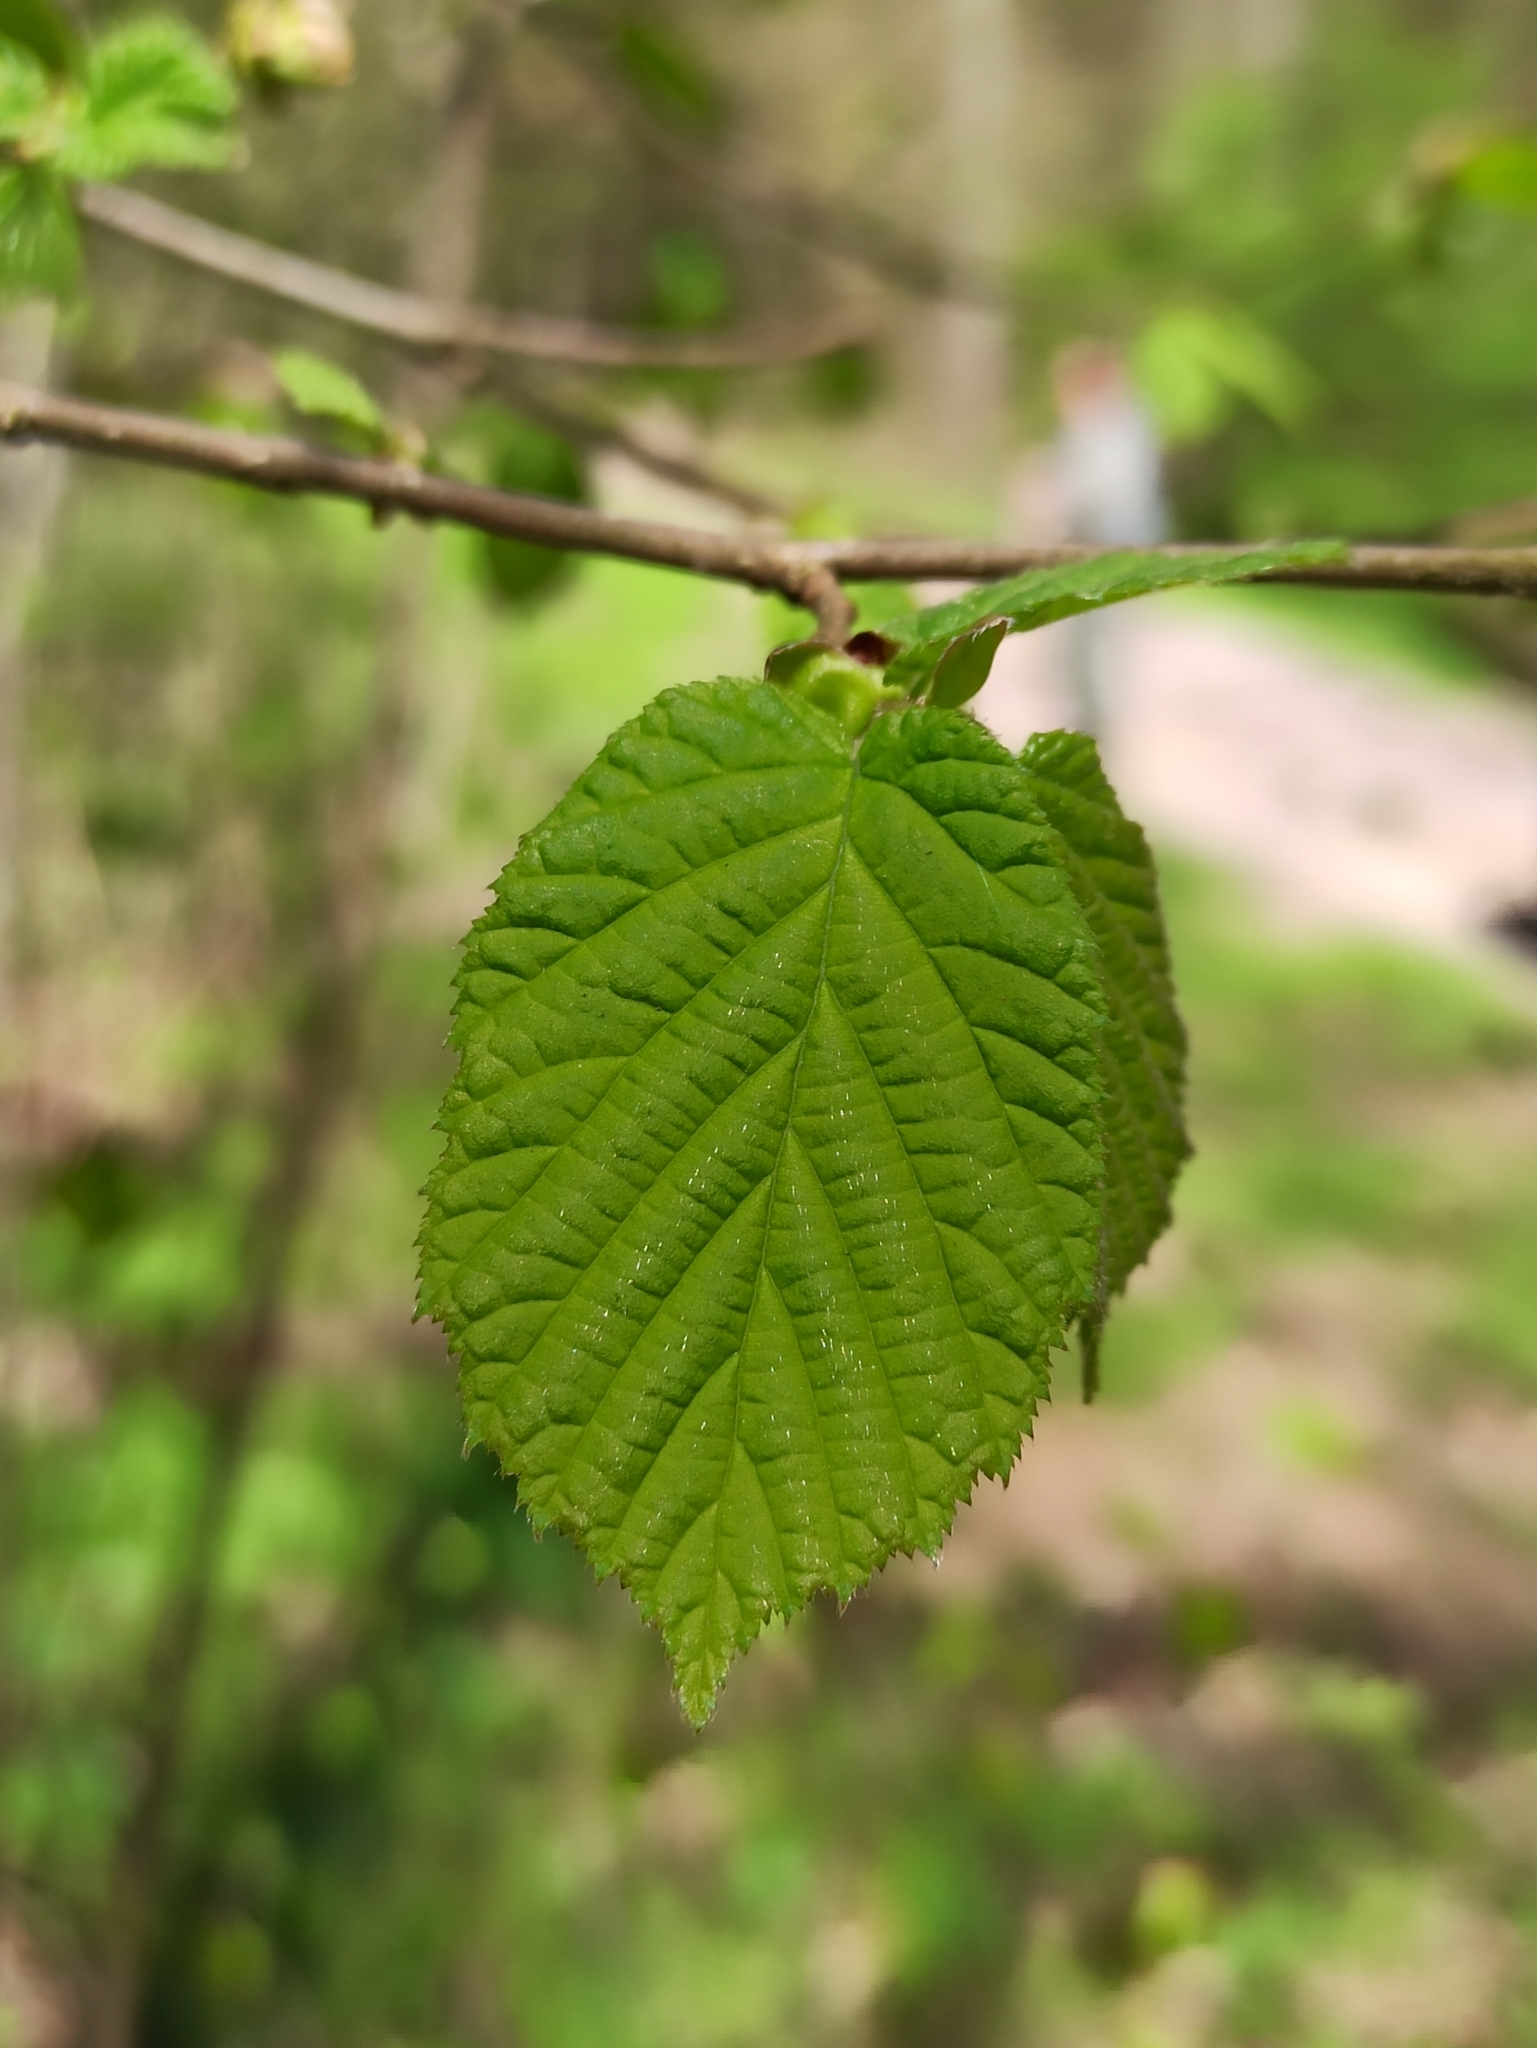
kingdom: Plantae
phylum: Tracheophyta
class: Magnoliopsida
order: Fagales
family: Betulaceae
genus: Corylus
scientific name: Corylus avellana
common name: European hazel
